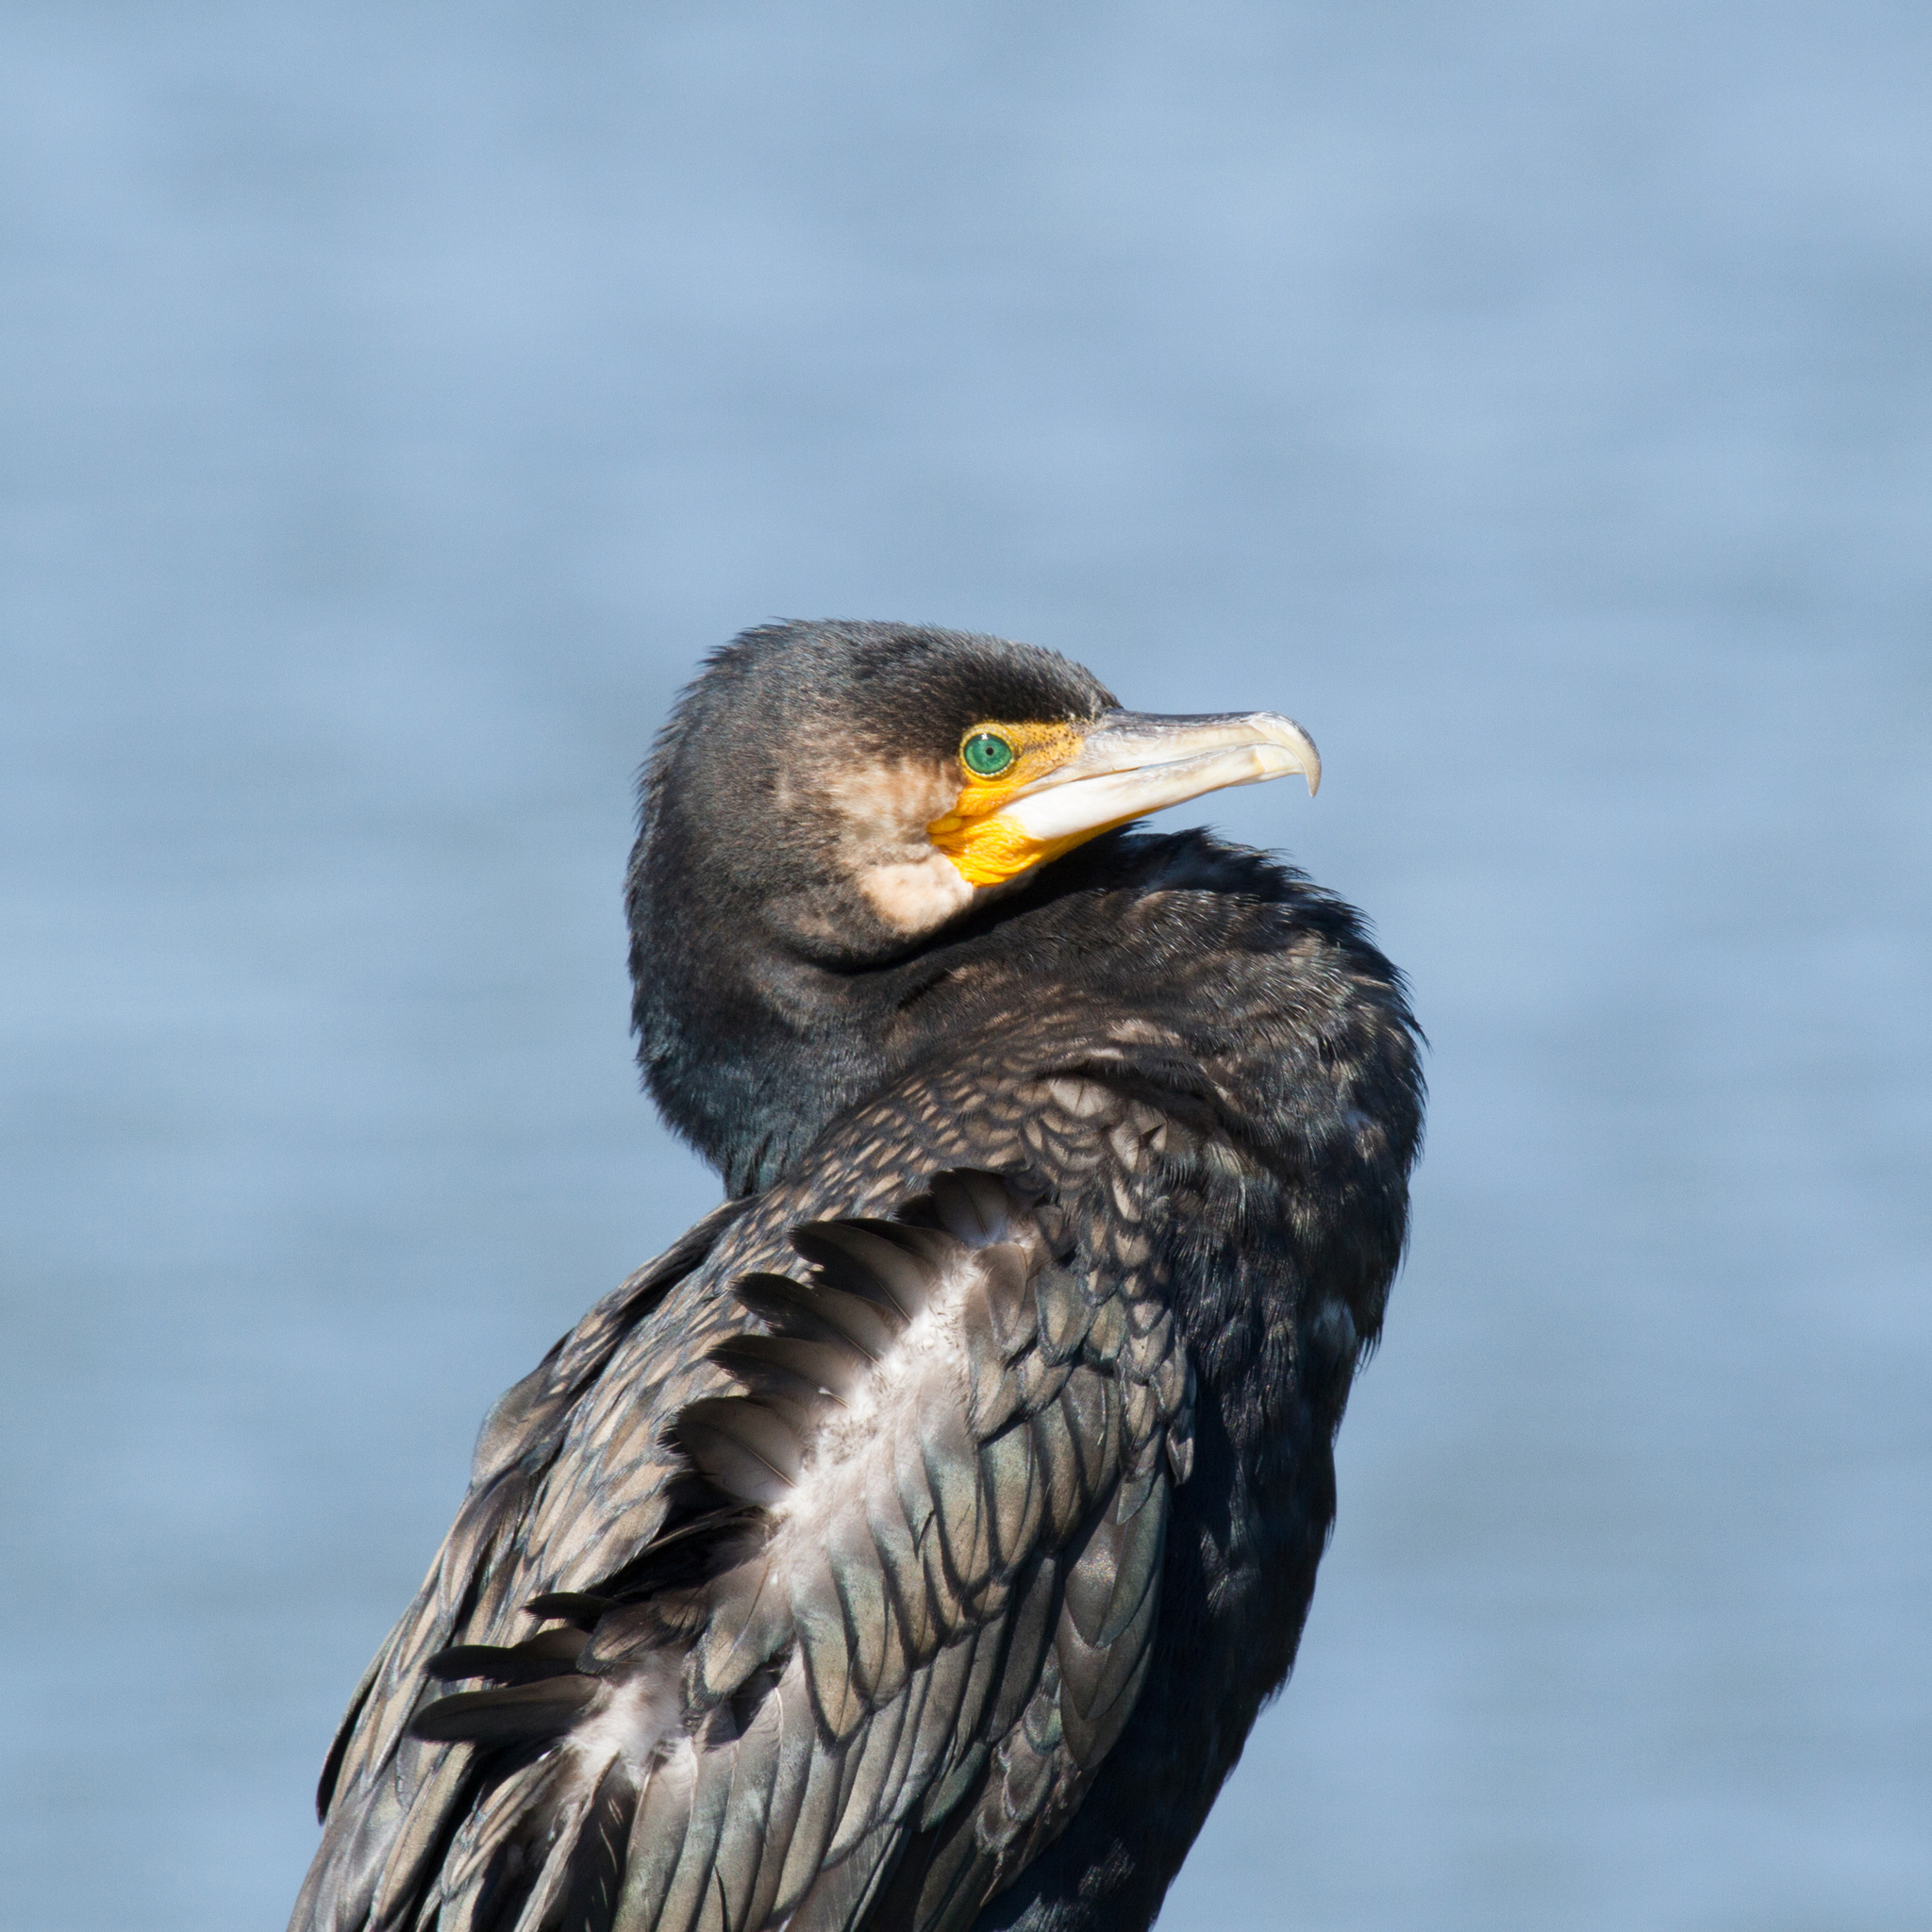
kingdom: Animalia
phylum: Chordata
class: Aves
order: Suliformes
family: Phalacrocoracidae
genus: Phalacrocorax
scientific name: Phalacrocorax carbo
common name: Great cormorant
